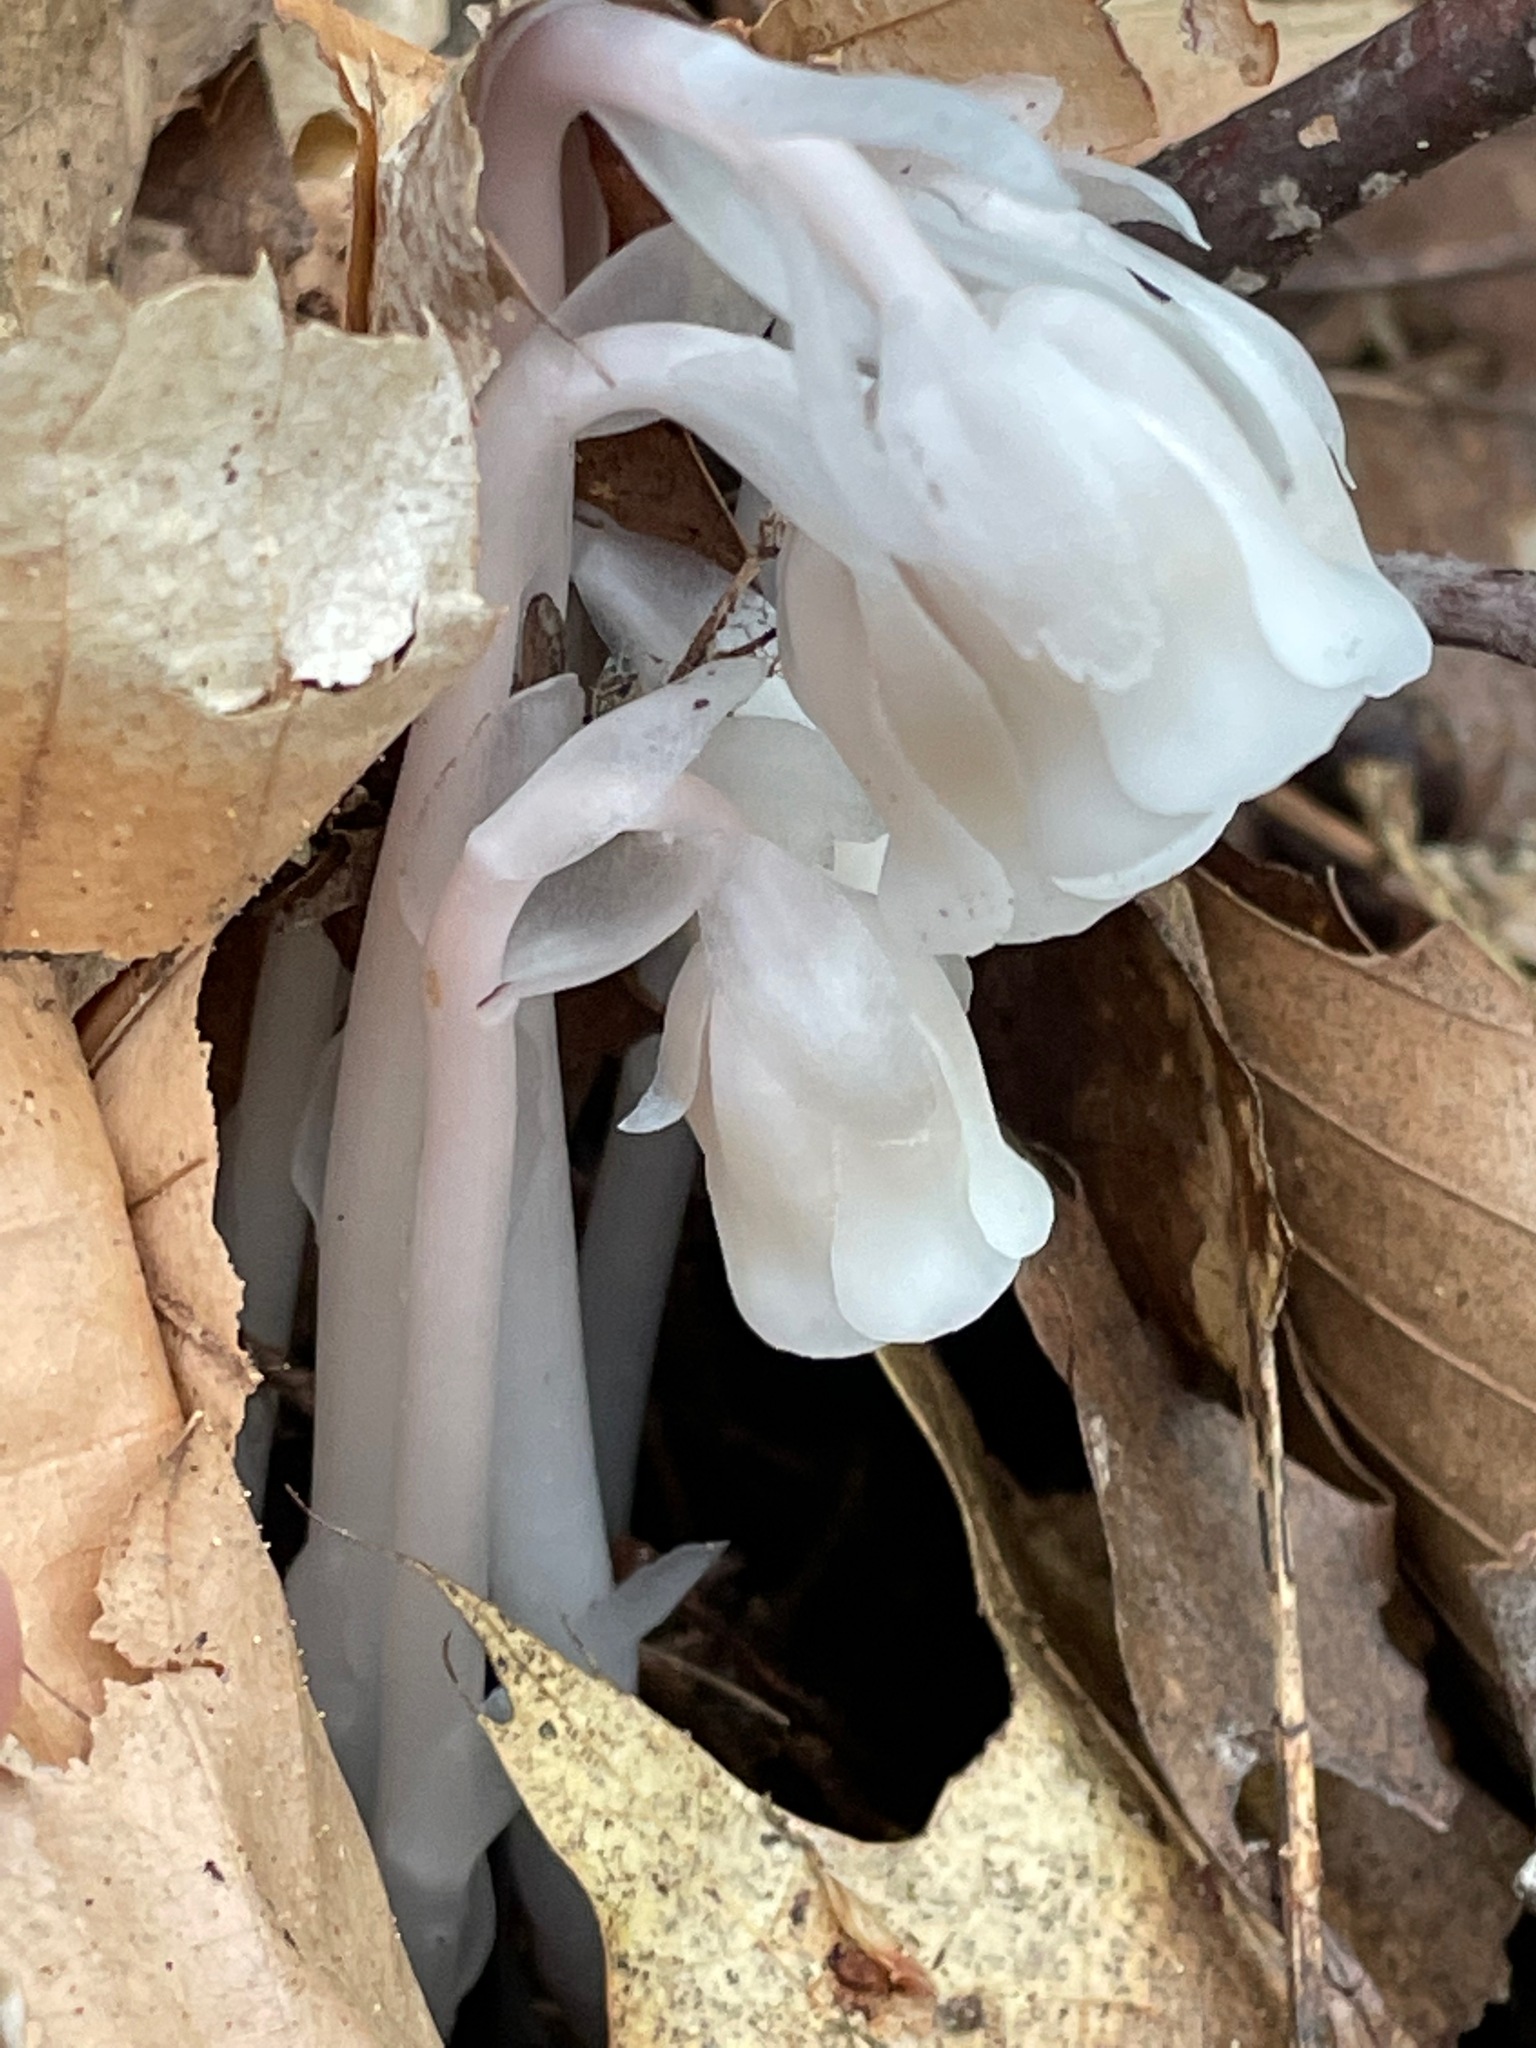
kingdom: Plantae
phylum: Tracheophyta
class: Magnoliopsida
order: Ericales
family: Ericaceae
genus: Monotropa
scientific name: Monotropa uniflora
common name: Convulsion root
